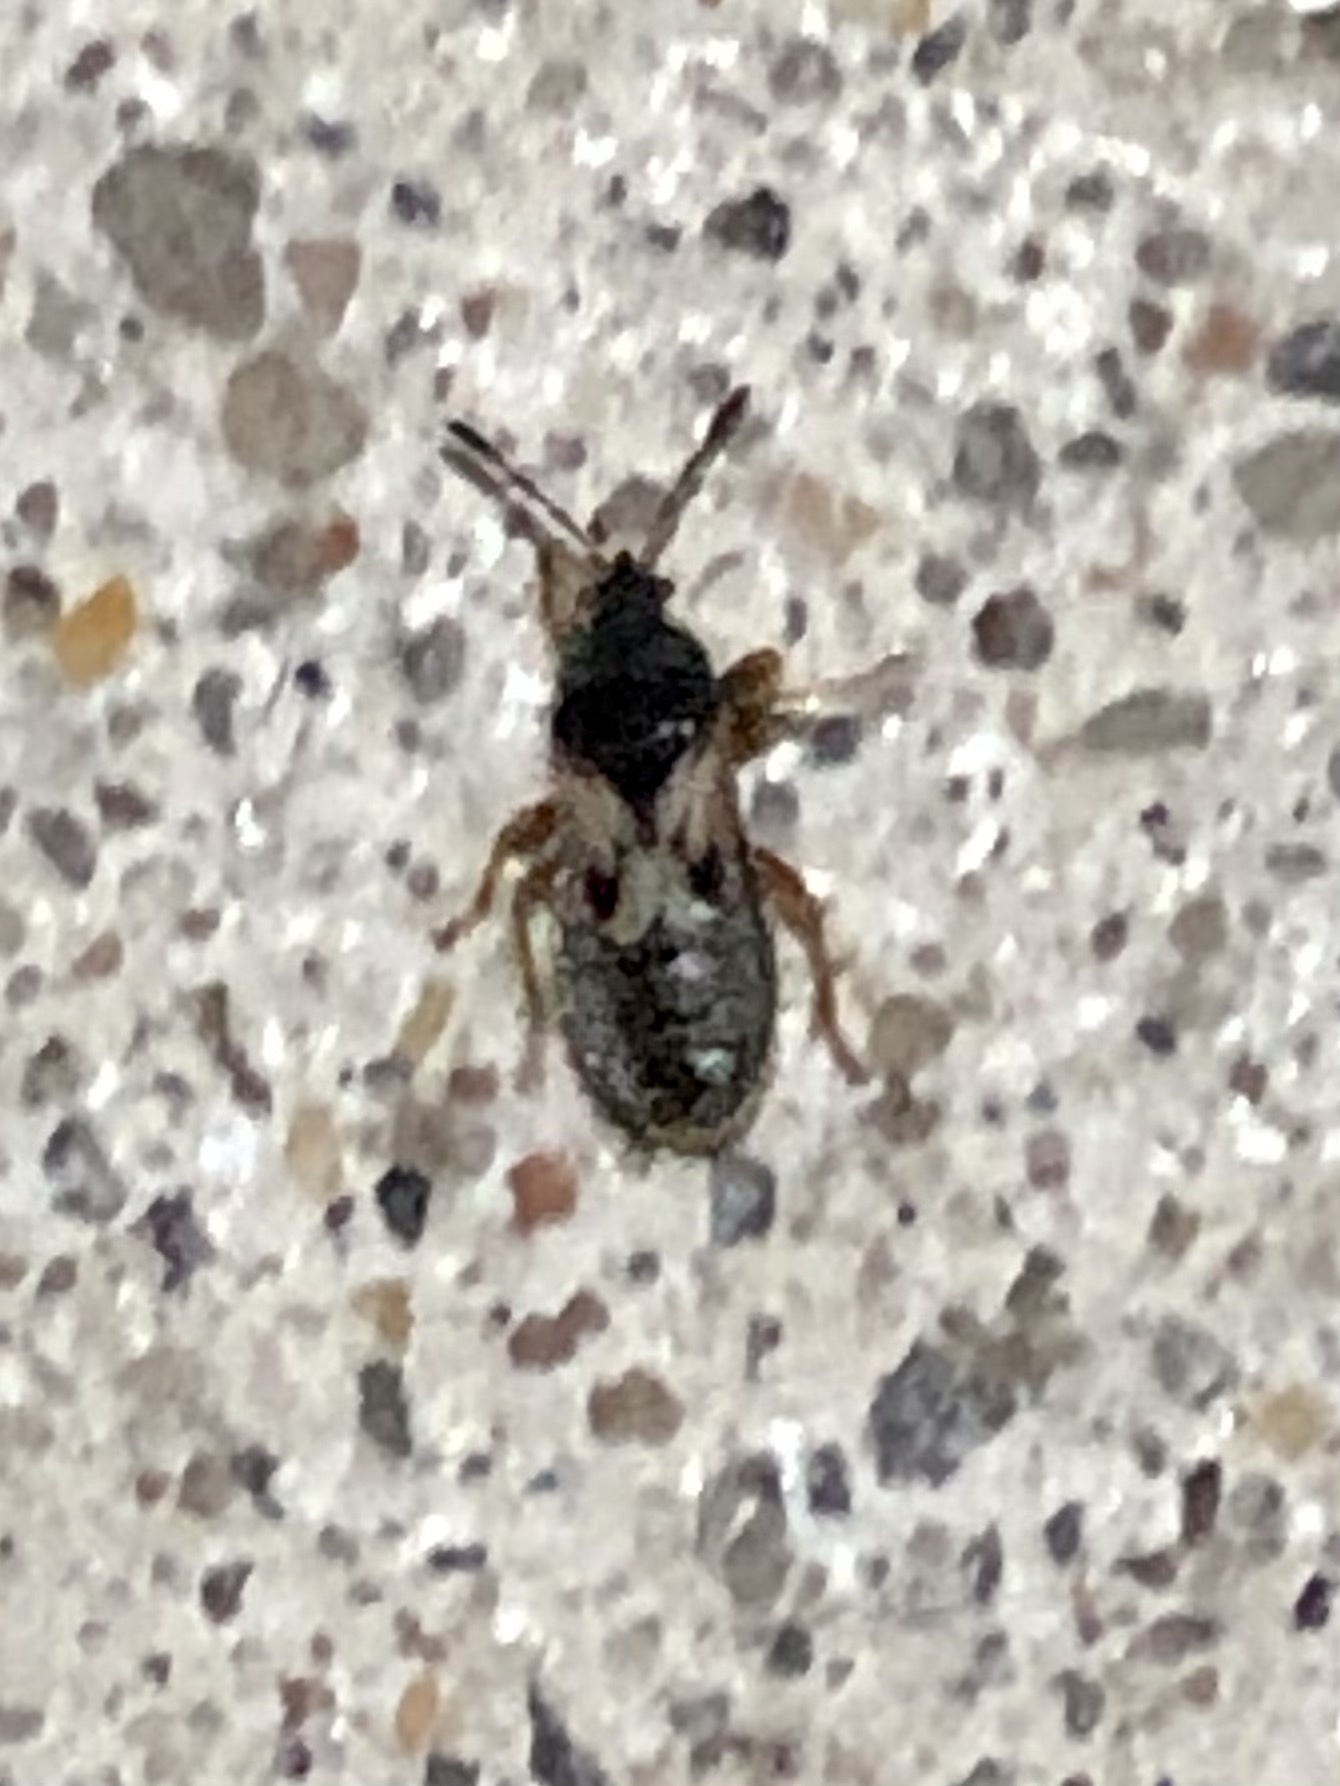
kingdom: Animalia
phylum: Arthropoda
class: Insecta
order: Hemiptera
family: Blissidae
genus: Blissus
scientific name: Blissus leucopterus
